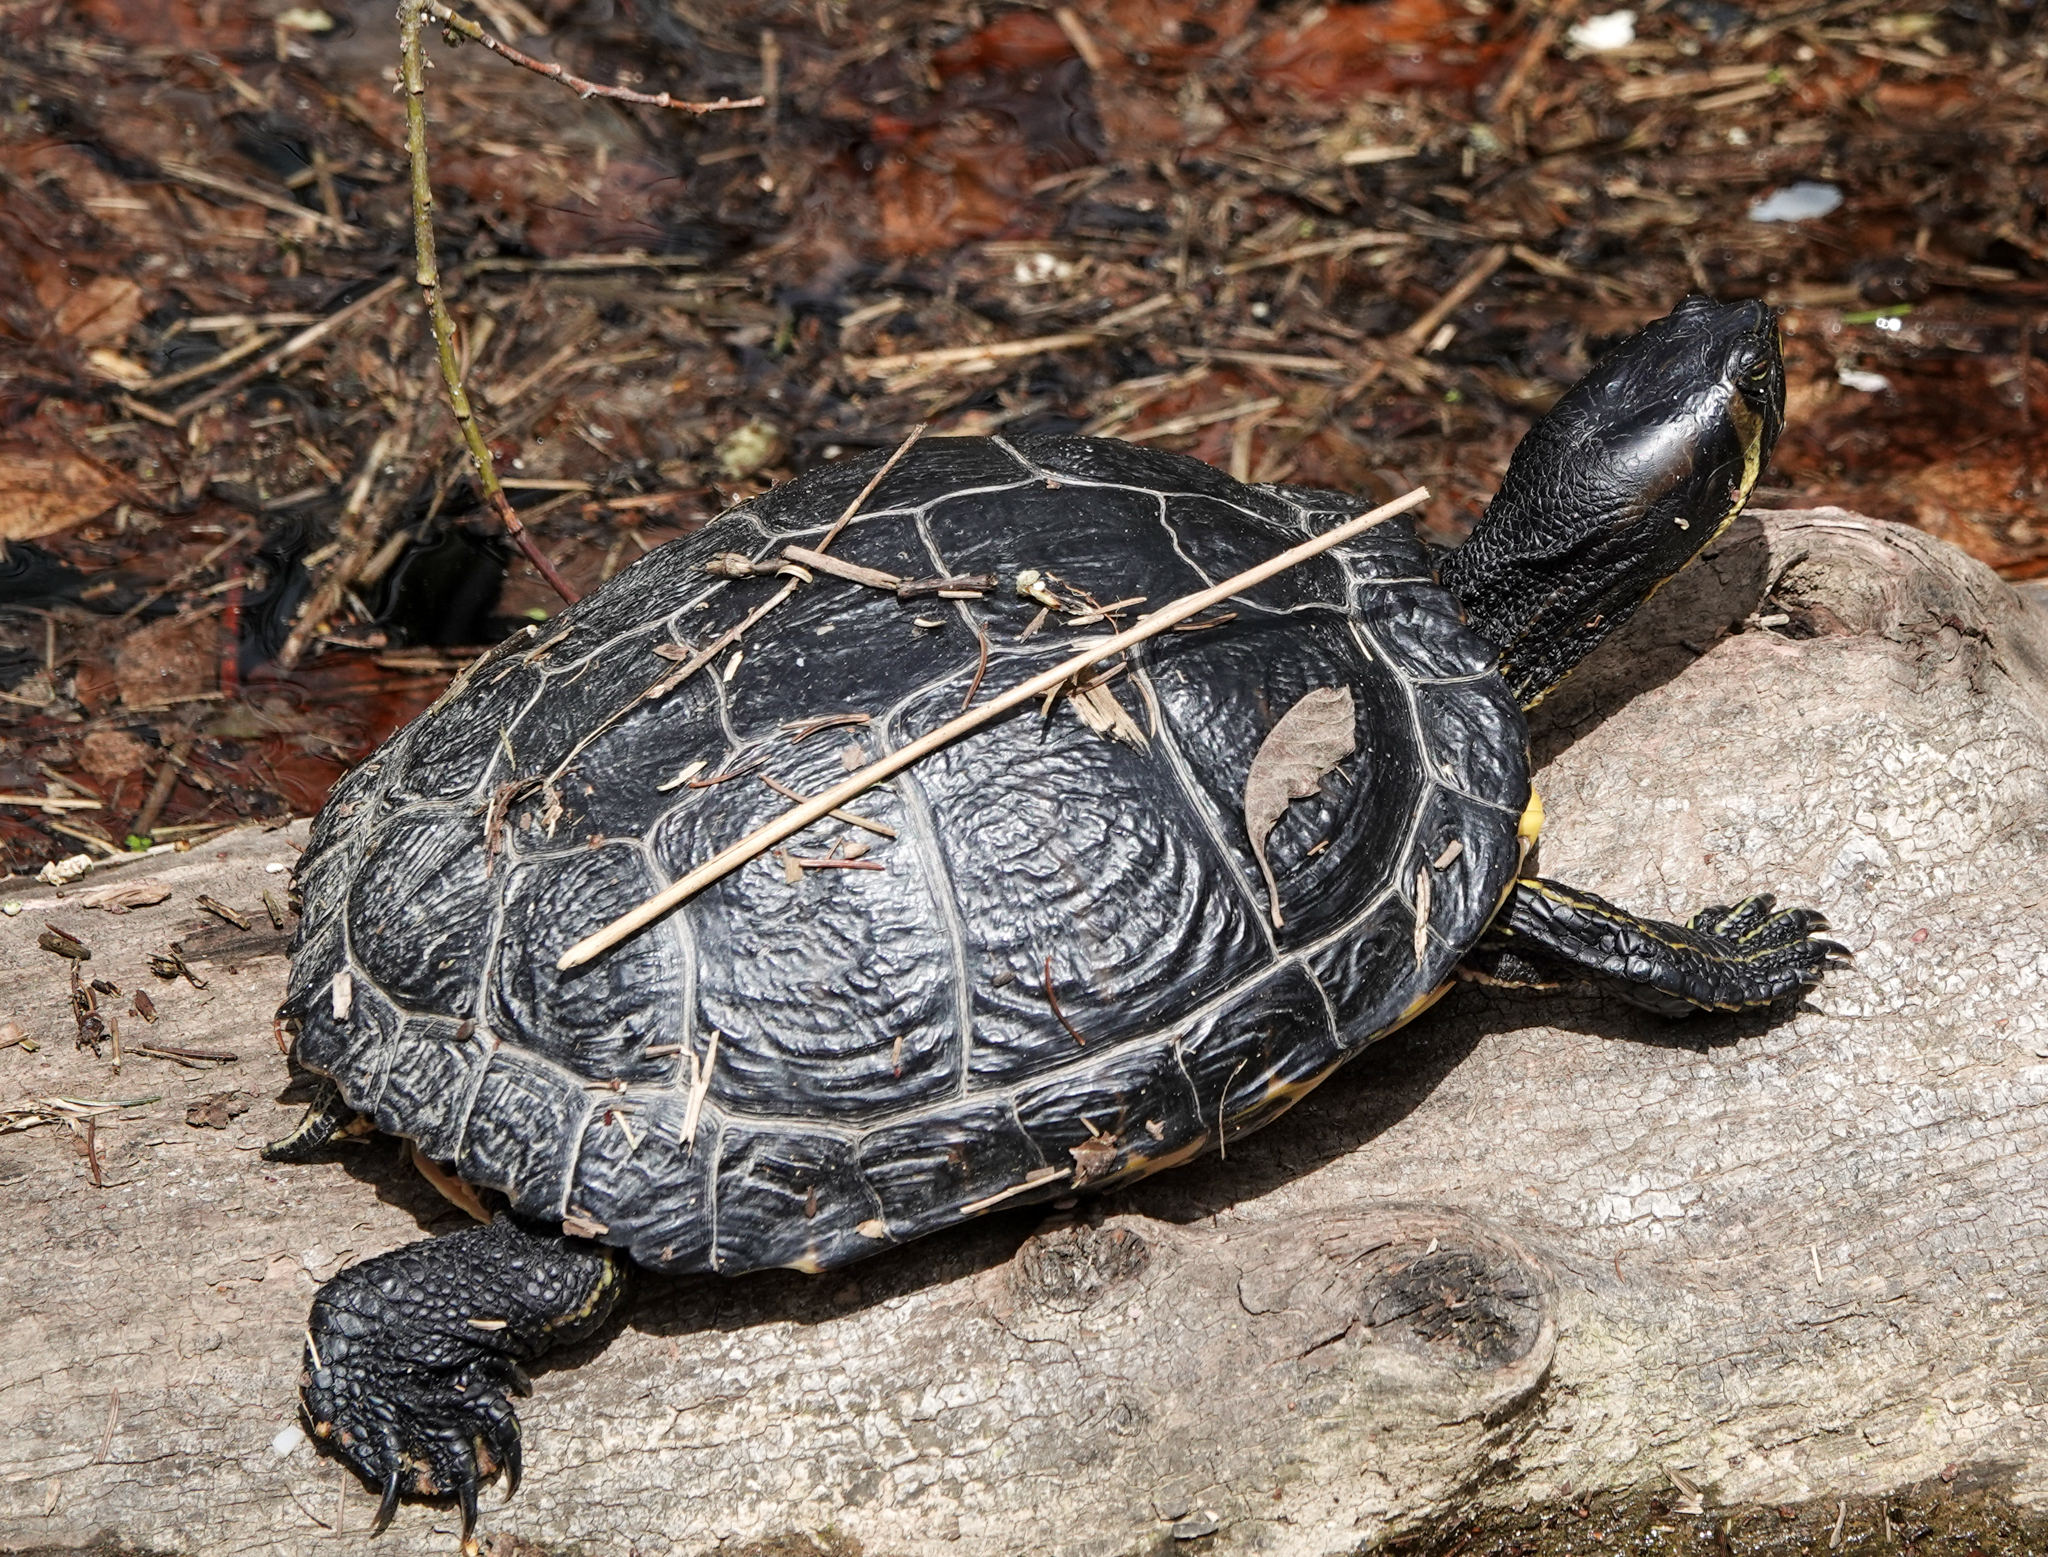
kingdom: Animalia
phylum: Chordata
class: Testudines
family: Emydidae
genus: Trachemys
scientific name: Trachemys scripta
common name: Slider
